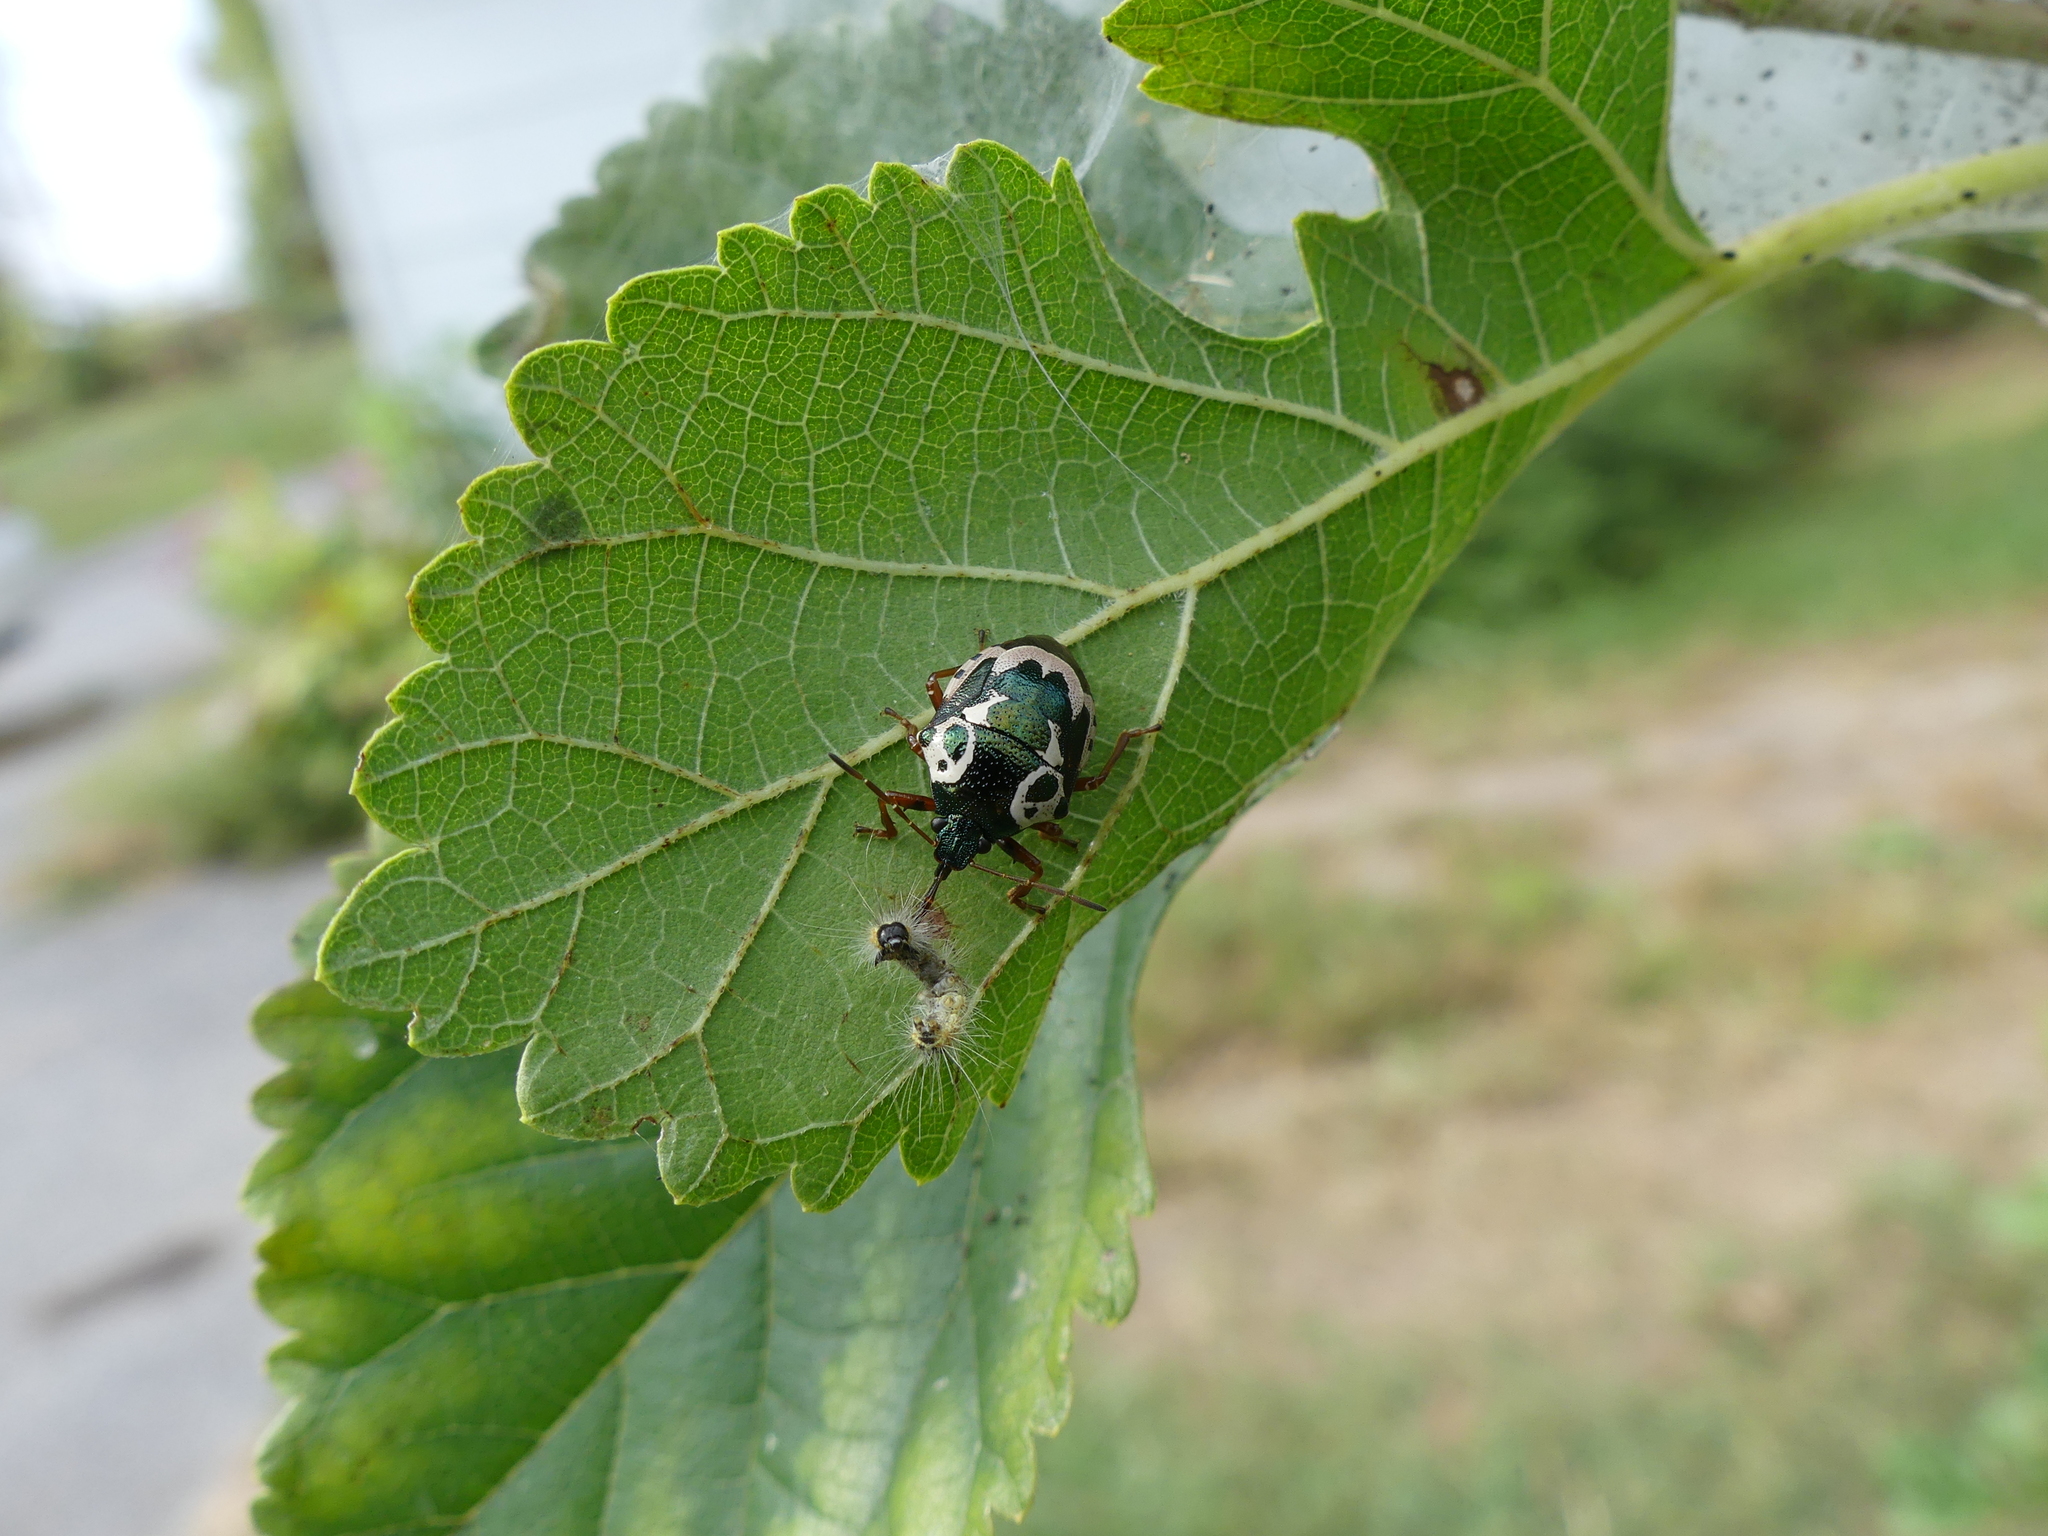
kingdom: Animalia
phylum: Arthropoda
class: Insecta
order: Hemiptera
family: Pentatomidae
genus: Stiretrus
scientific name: Stiretrus anchorago
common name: Anchor stink bug
